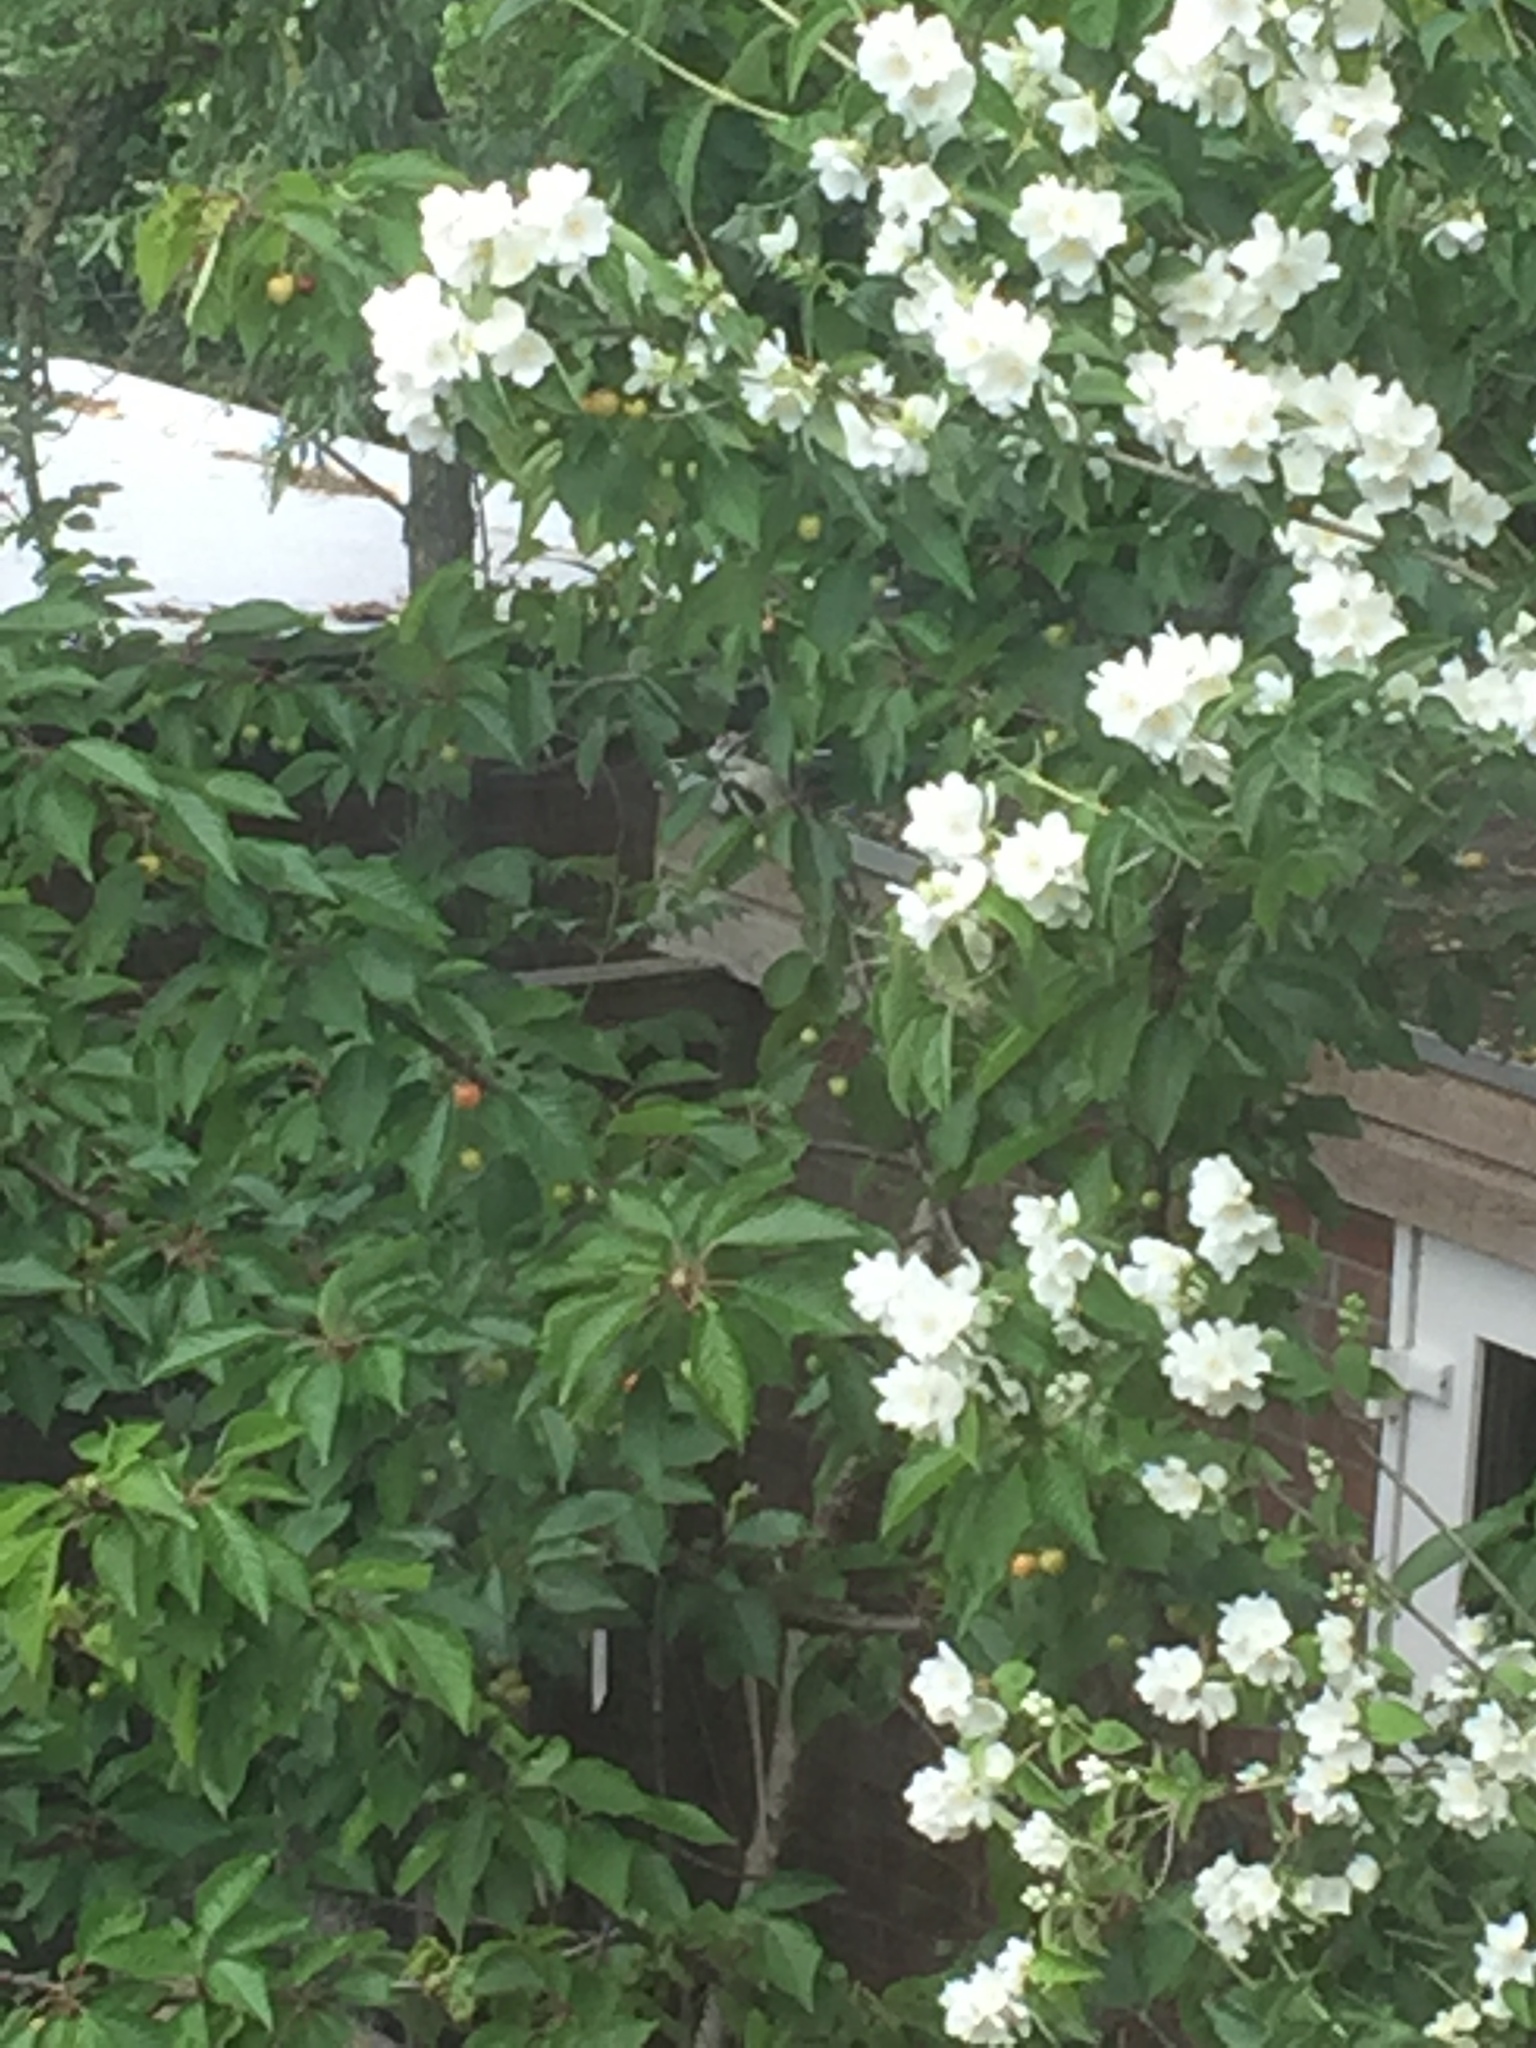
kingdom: Animalia
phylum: Chordata
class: Aves
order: Piciformes
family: Picidae
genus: Dendrocopos
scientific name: Dendrocopos major
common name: Great spotted woodpecker
